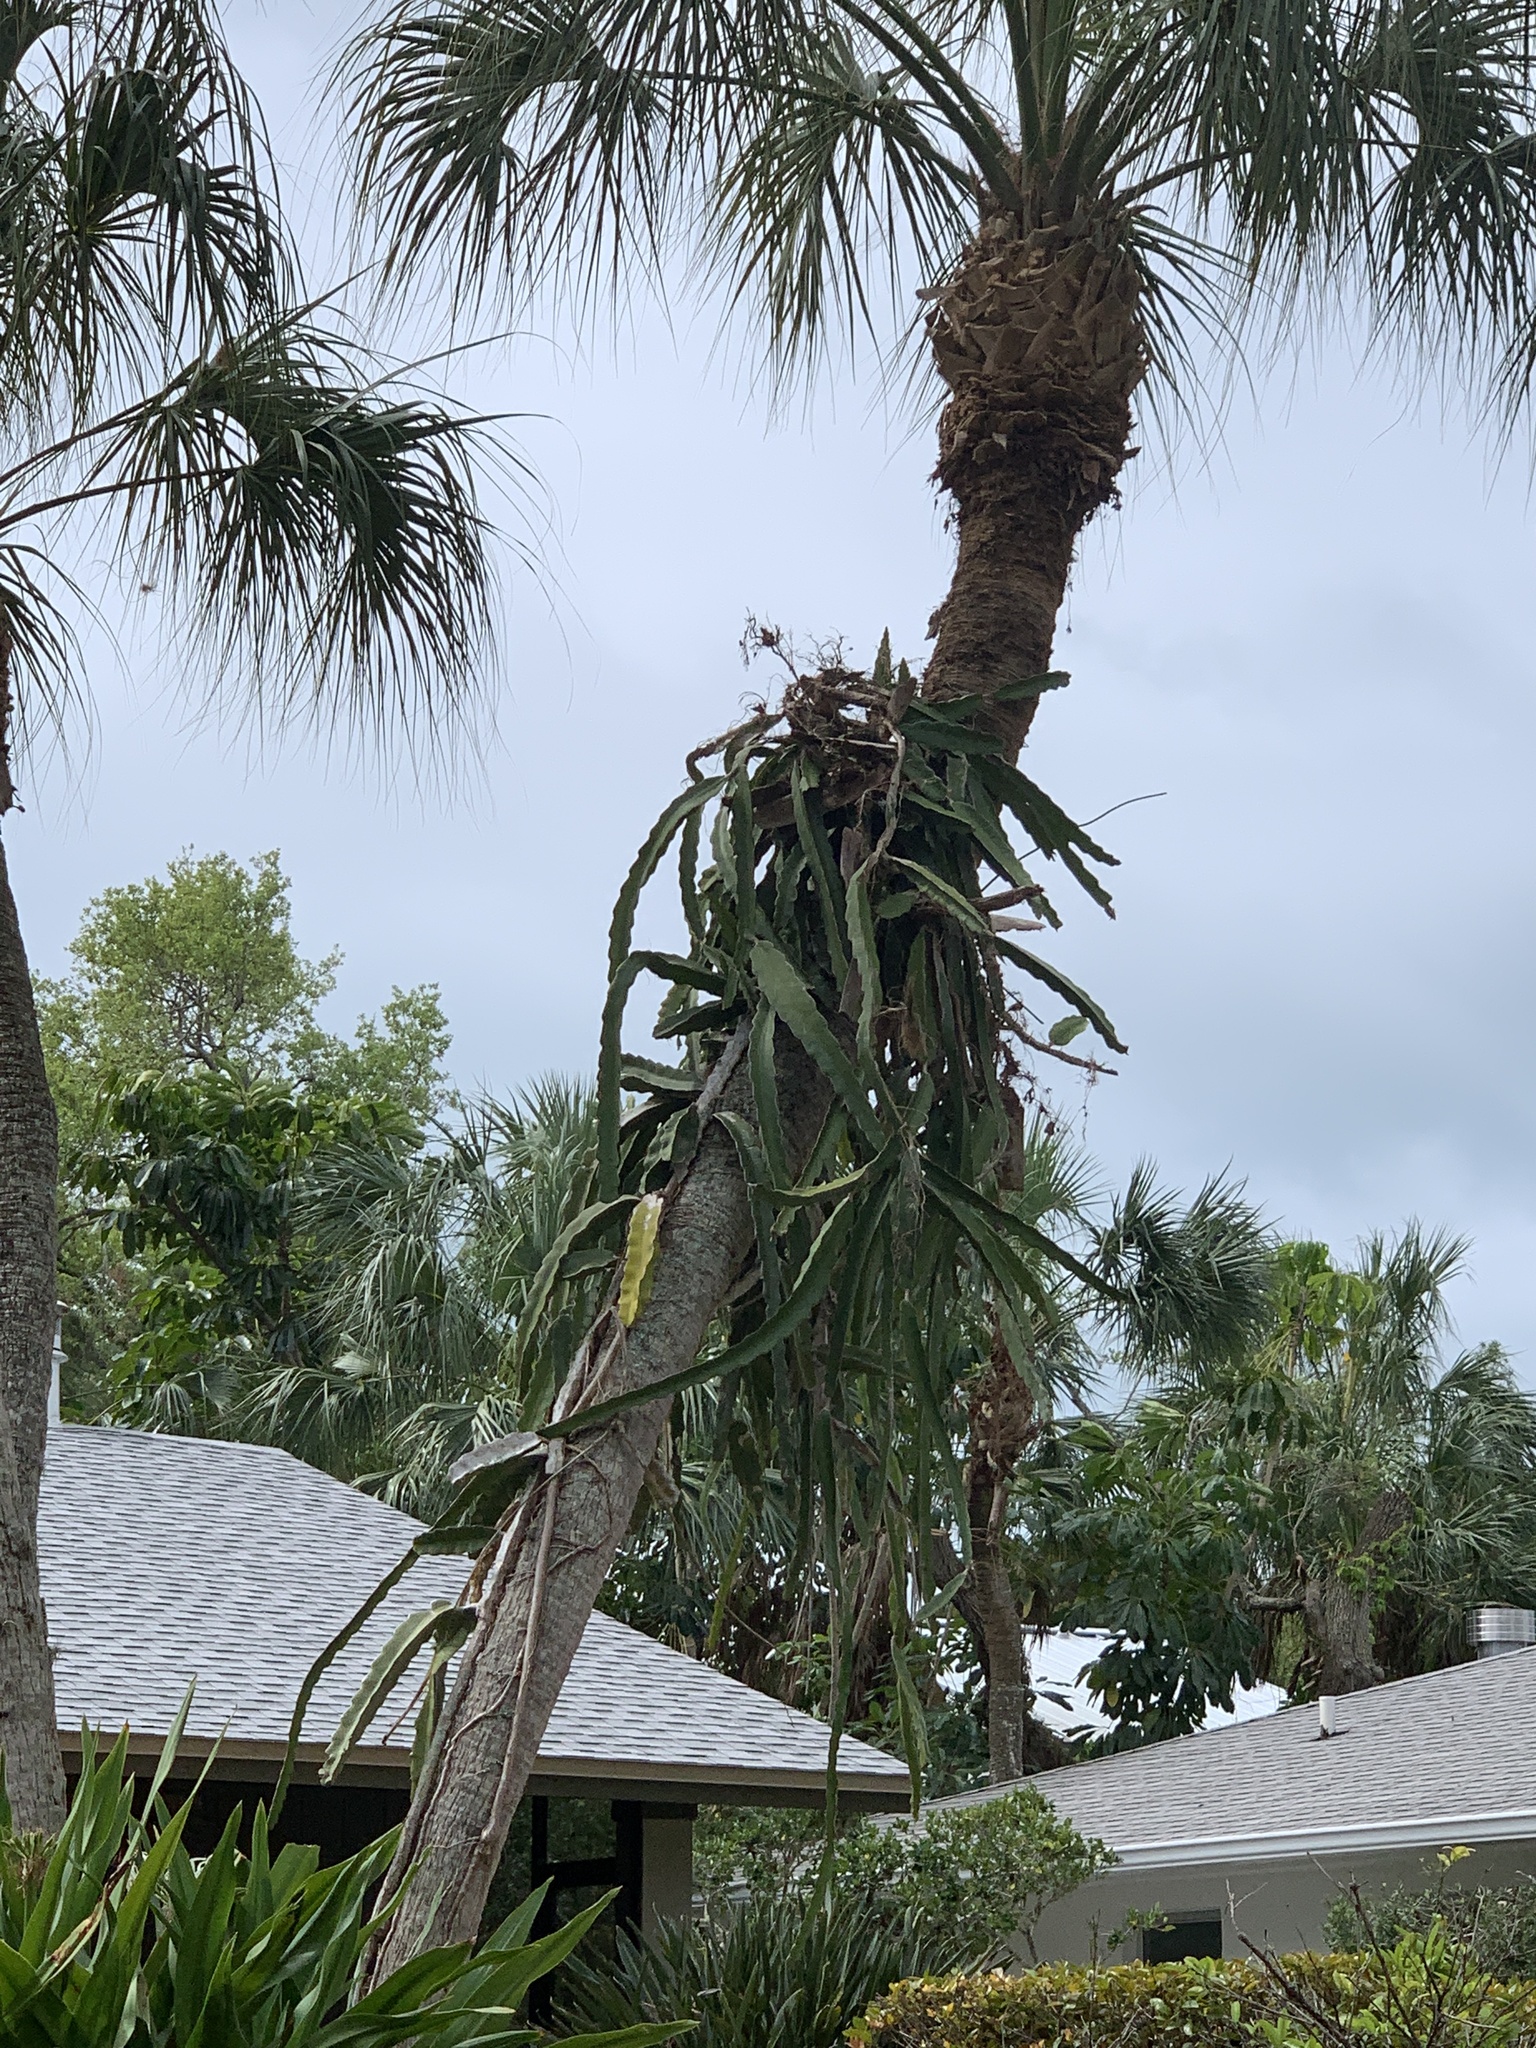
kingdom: Plantae
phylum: Tracheophyta
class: Magnoliopsida
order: Caryophyllales
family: Cactaceae
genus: Selenicereus
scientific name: Selenicereus undatus
